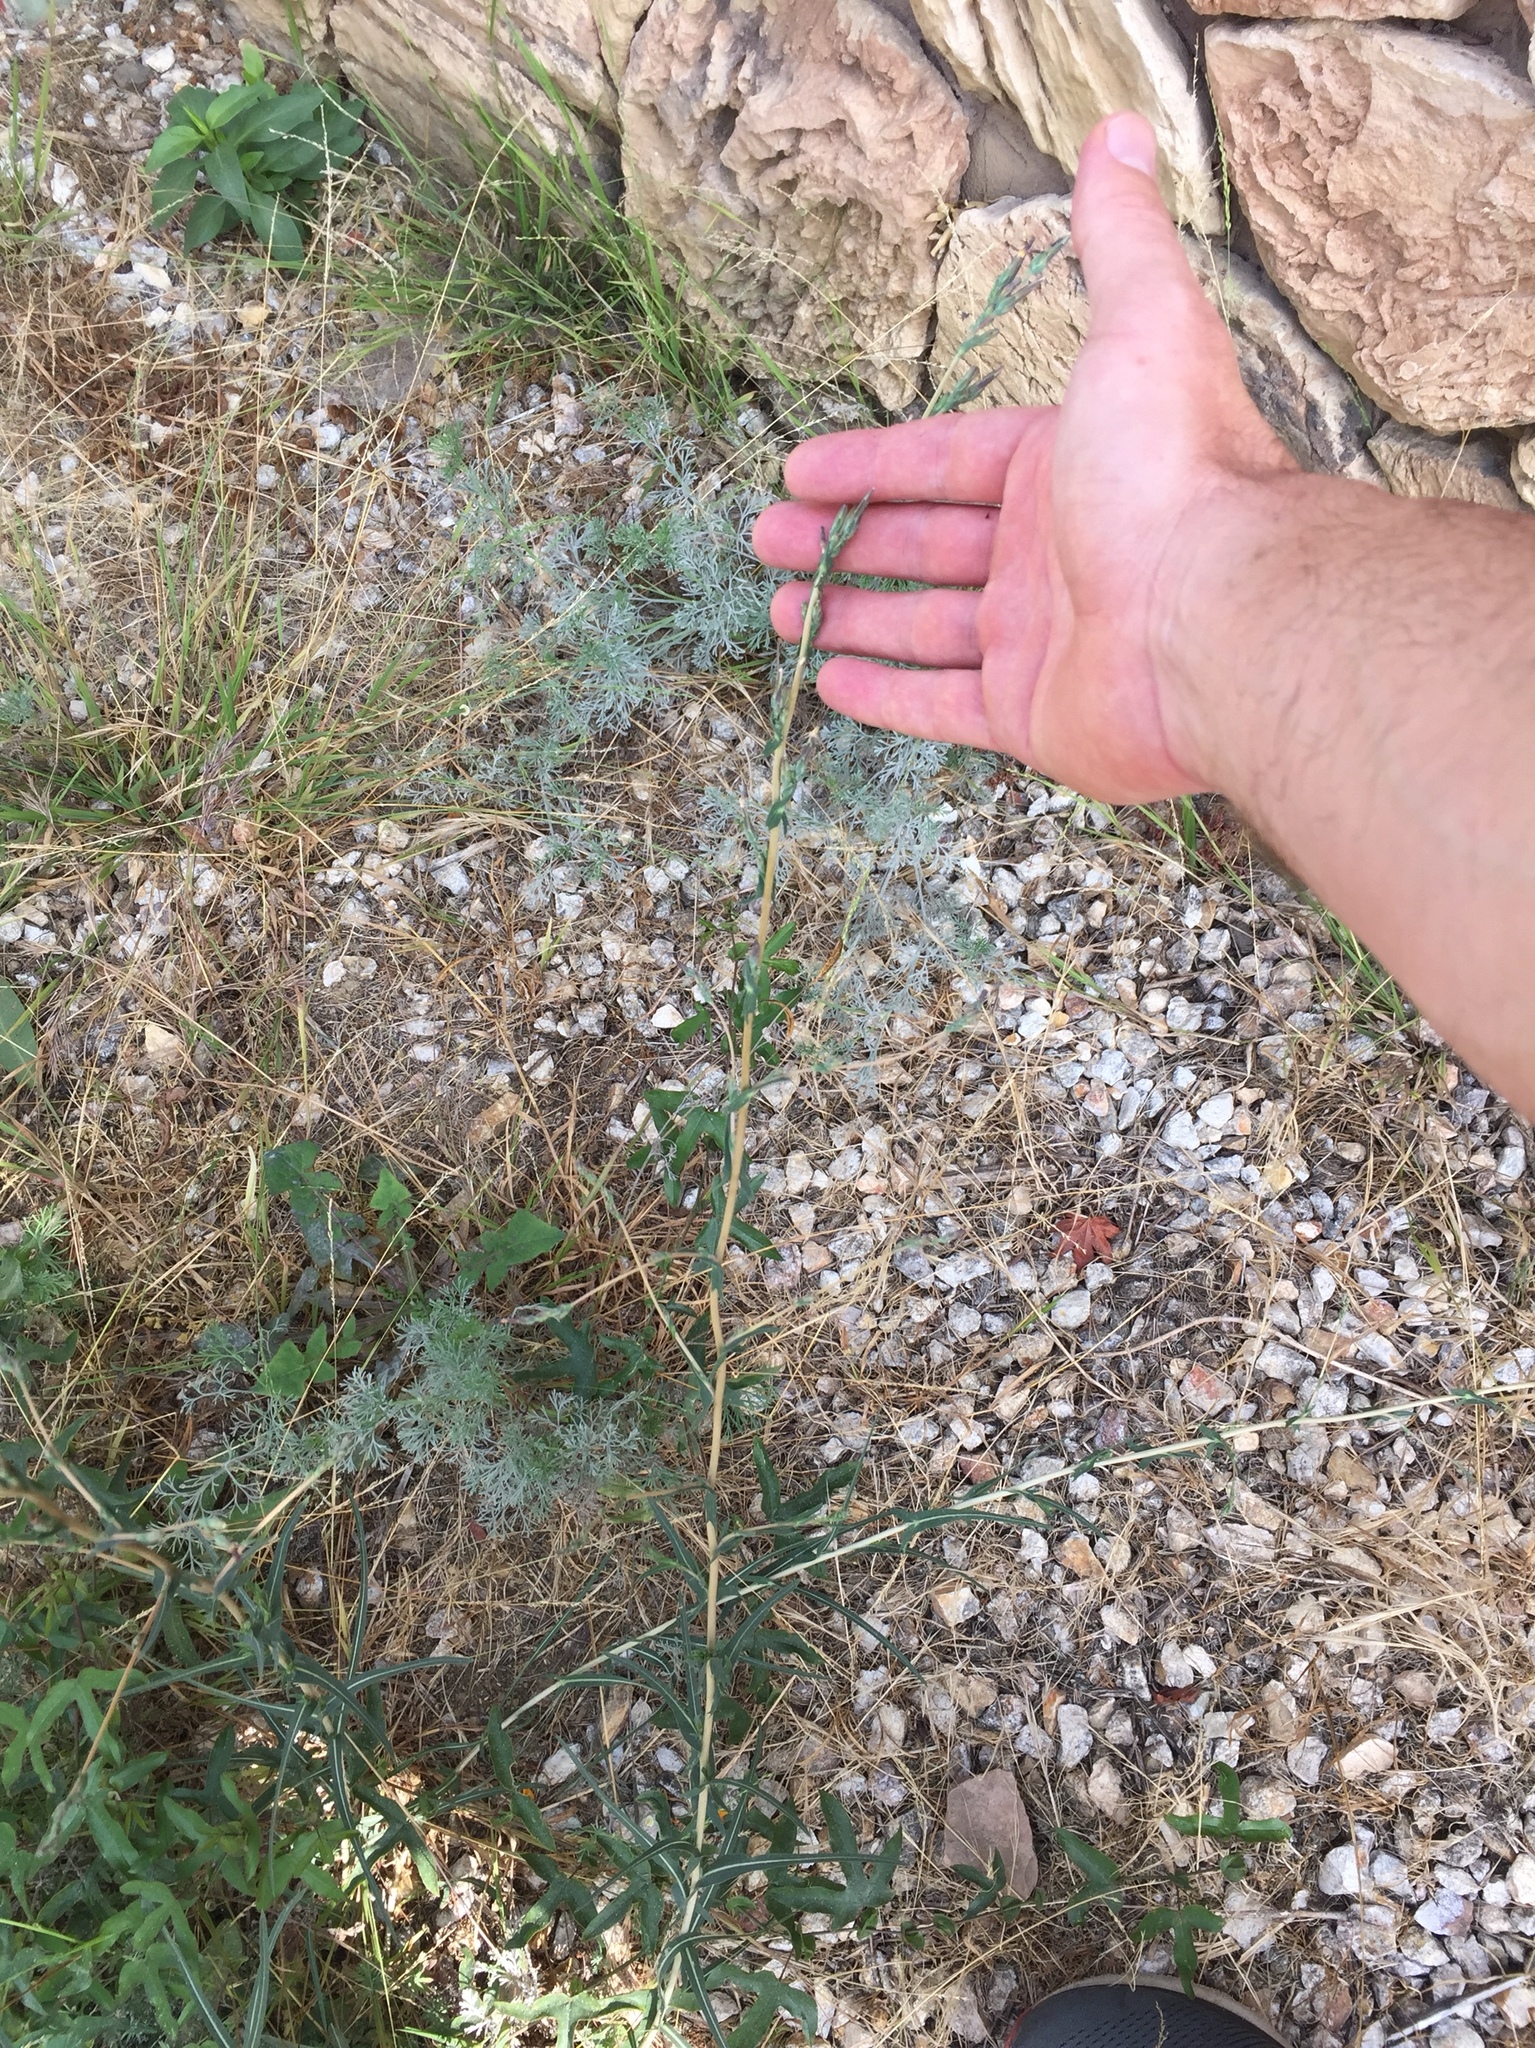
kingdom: Plantae
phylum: Tracheophyta
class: Magnoliopsida
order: Asterales
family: Asteraceae
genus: Lactuca
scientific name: Lactuca saligna
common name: Wild lettuce
